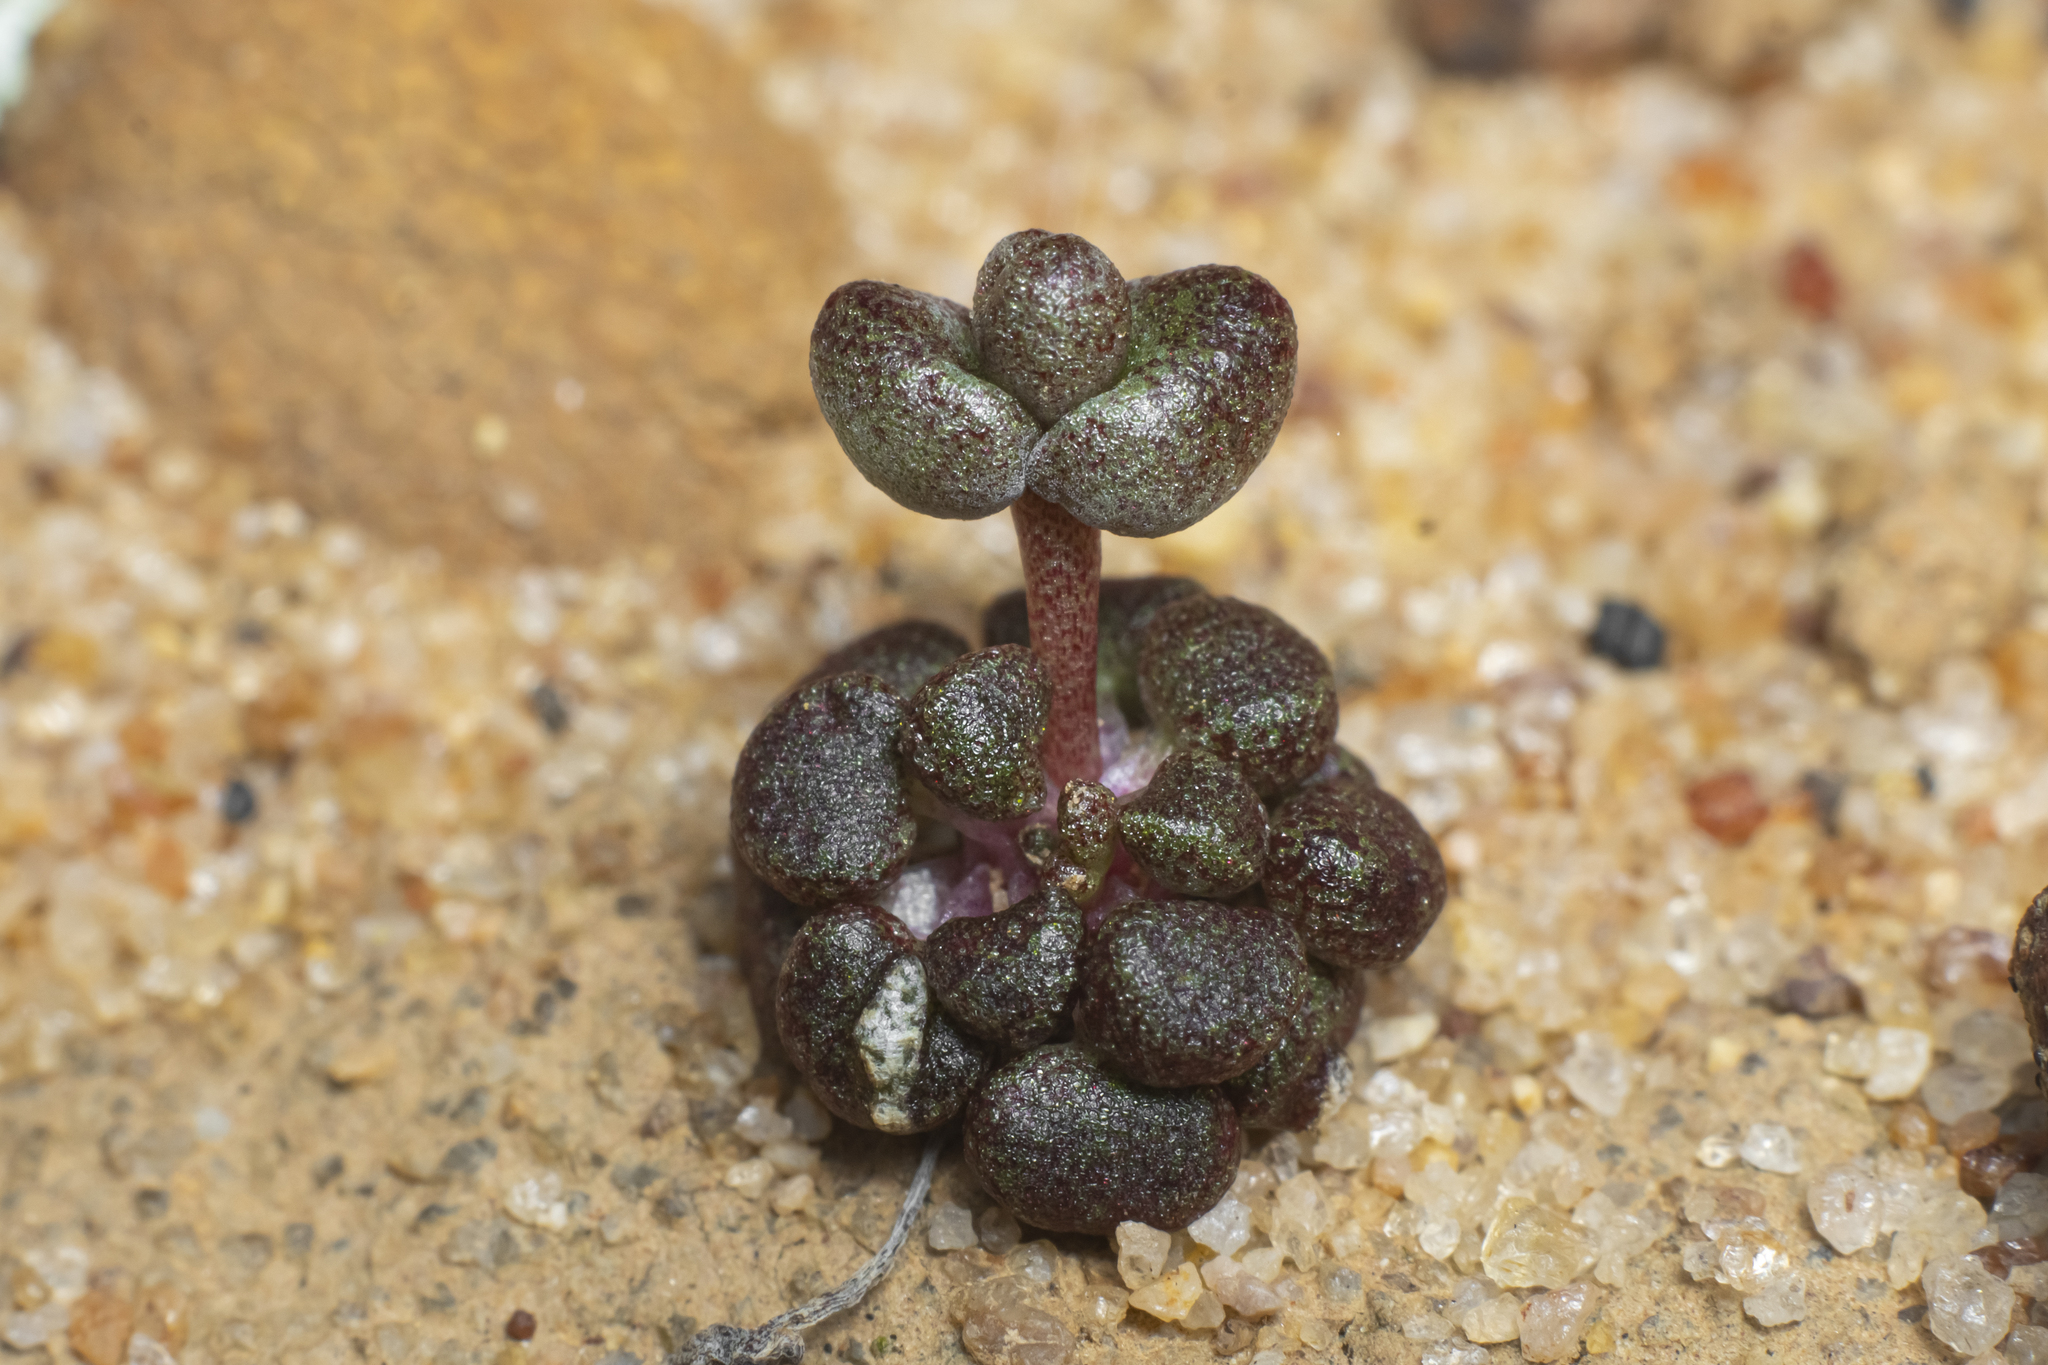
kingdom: Plantae
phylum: Tracheophyta
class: Magnoliopsida
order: Saxifragales
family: Crassulaceae
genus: Dudleya
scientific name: Dudleya blochmaniae
